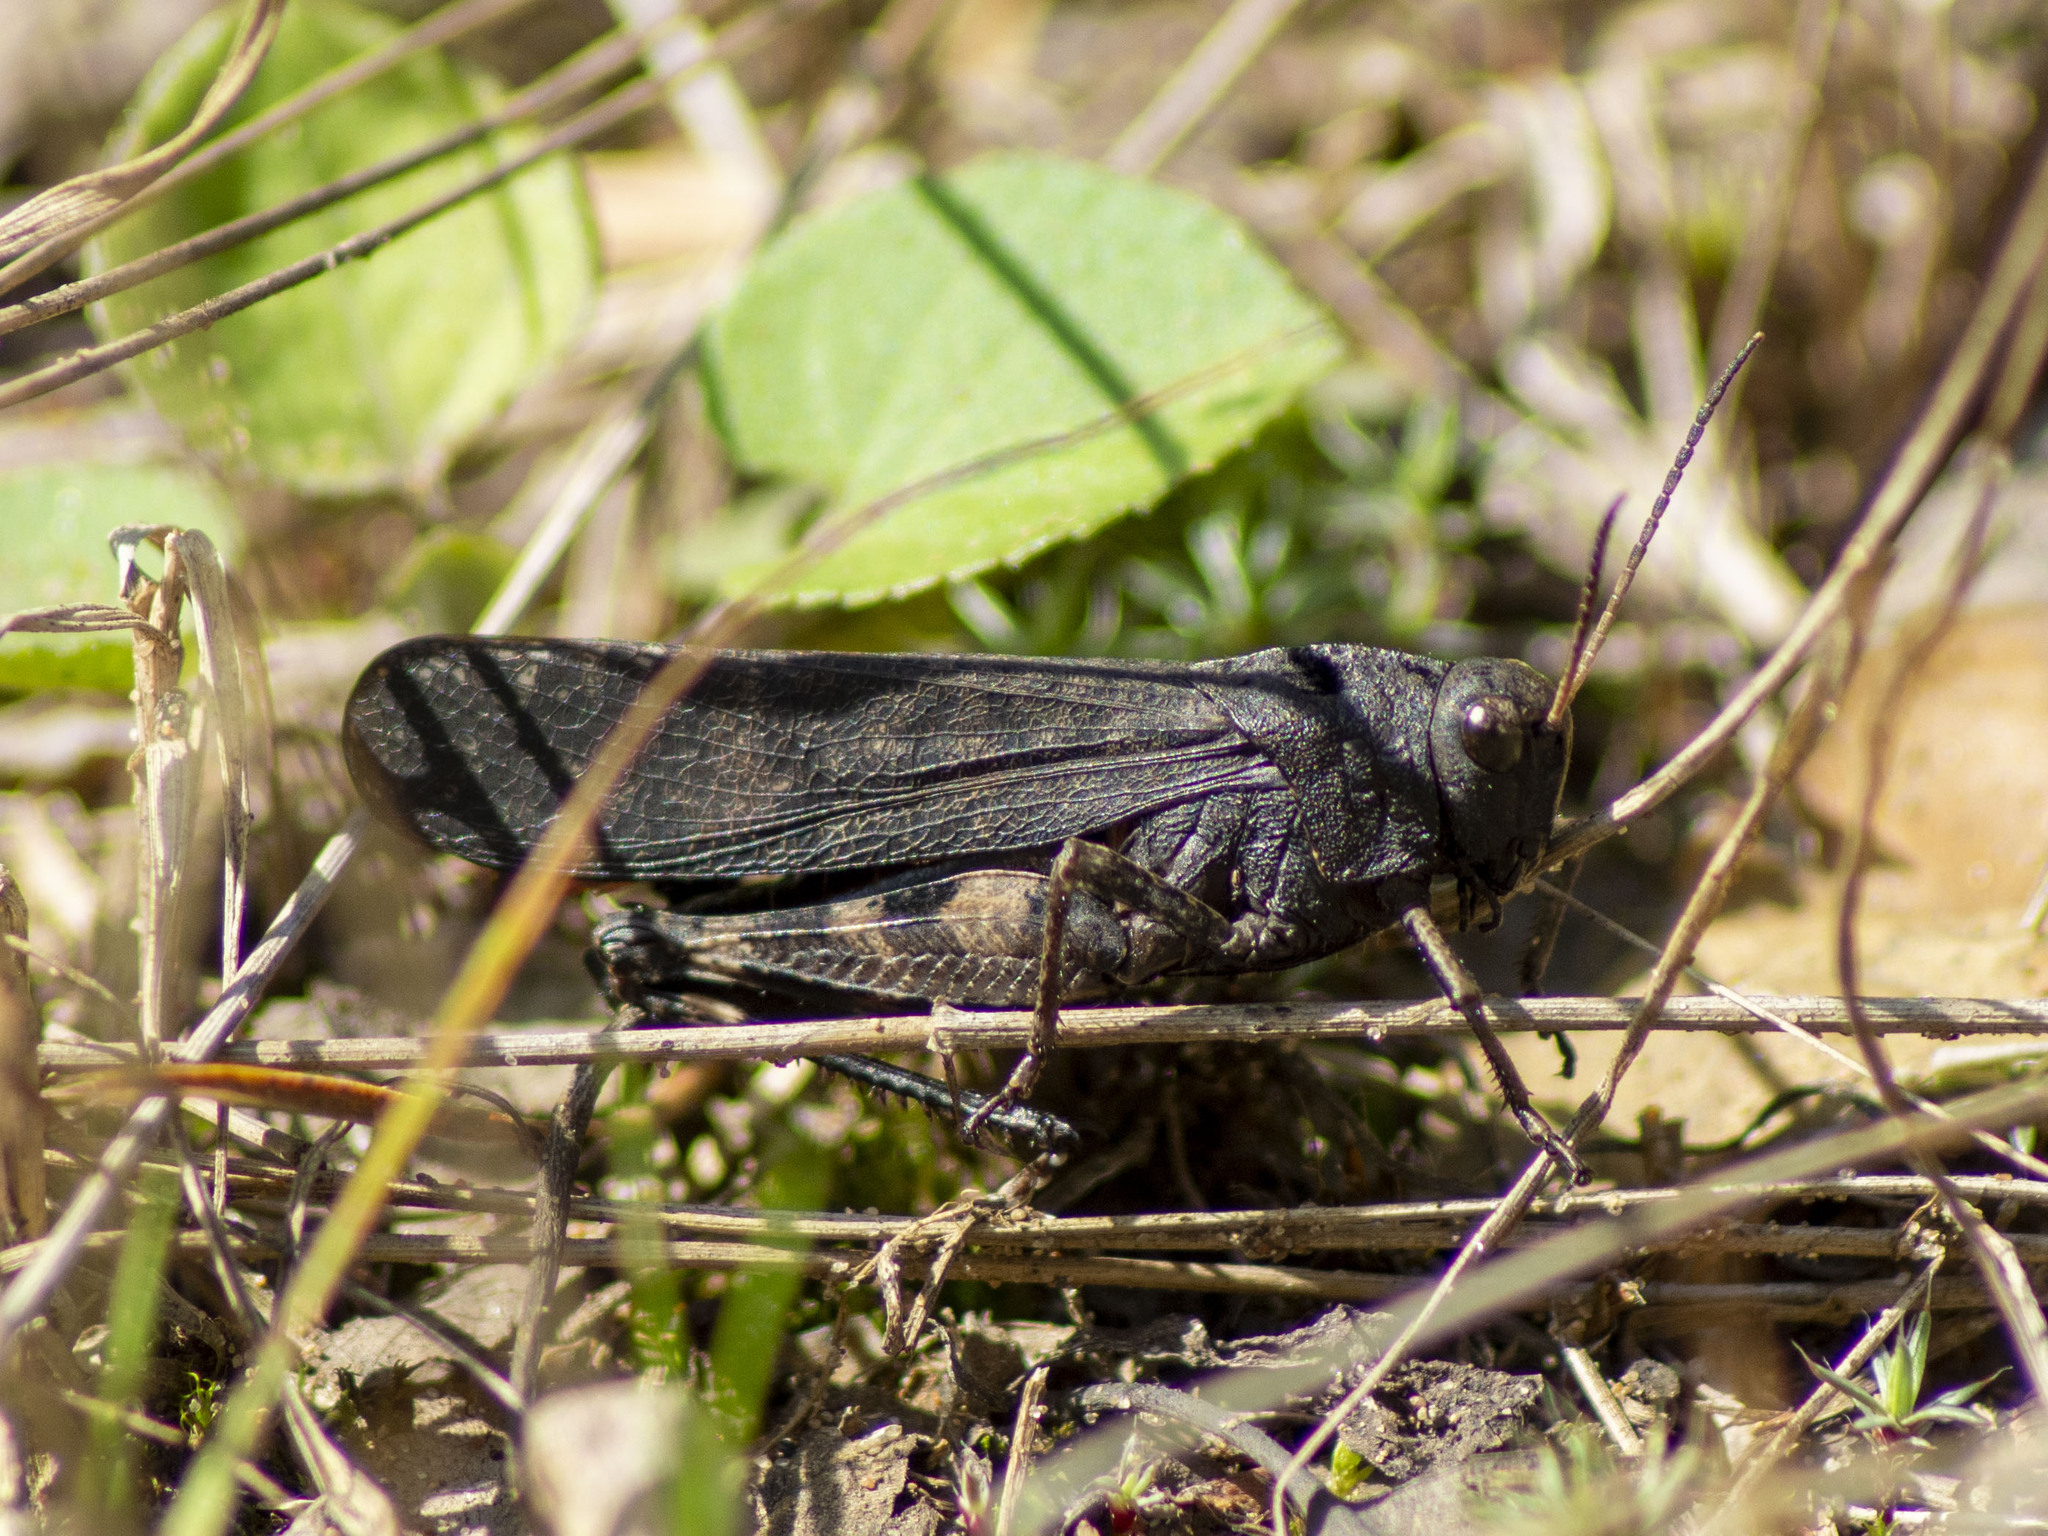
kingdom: Animalia
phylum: Arthropoda
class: Insecta
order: Orthoptera
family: Acrididae
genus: Psophus
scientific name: Psophus stridulus
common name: Rattle grasshopper
